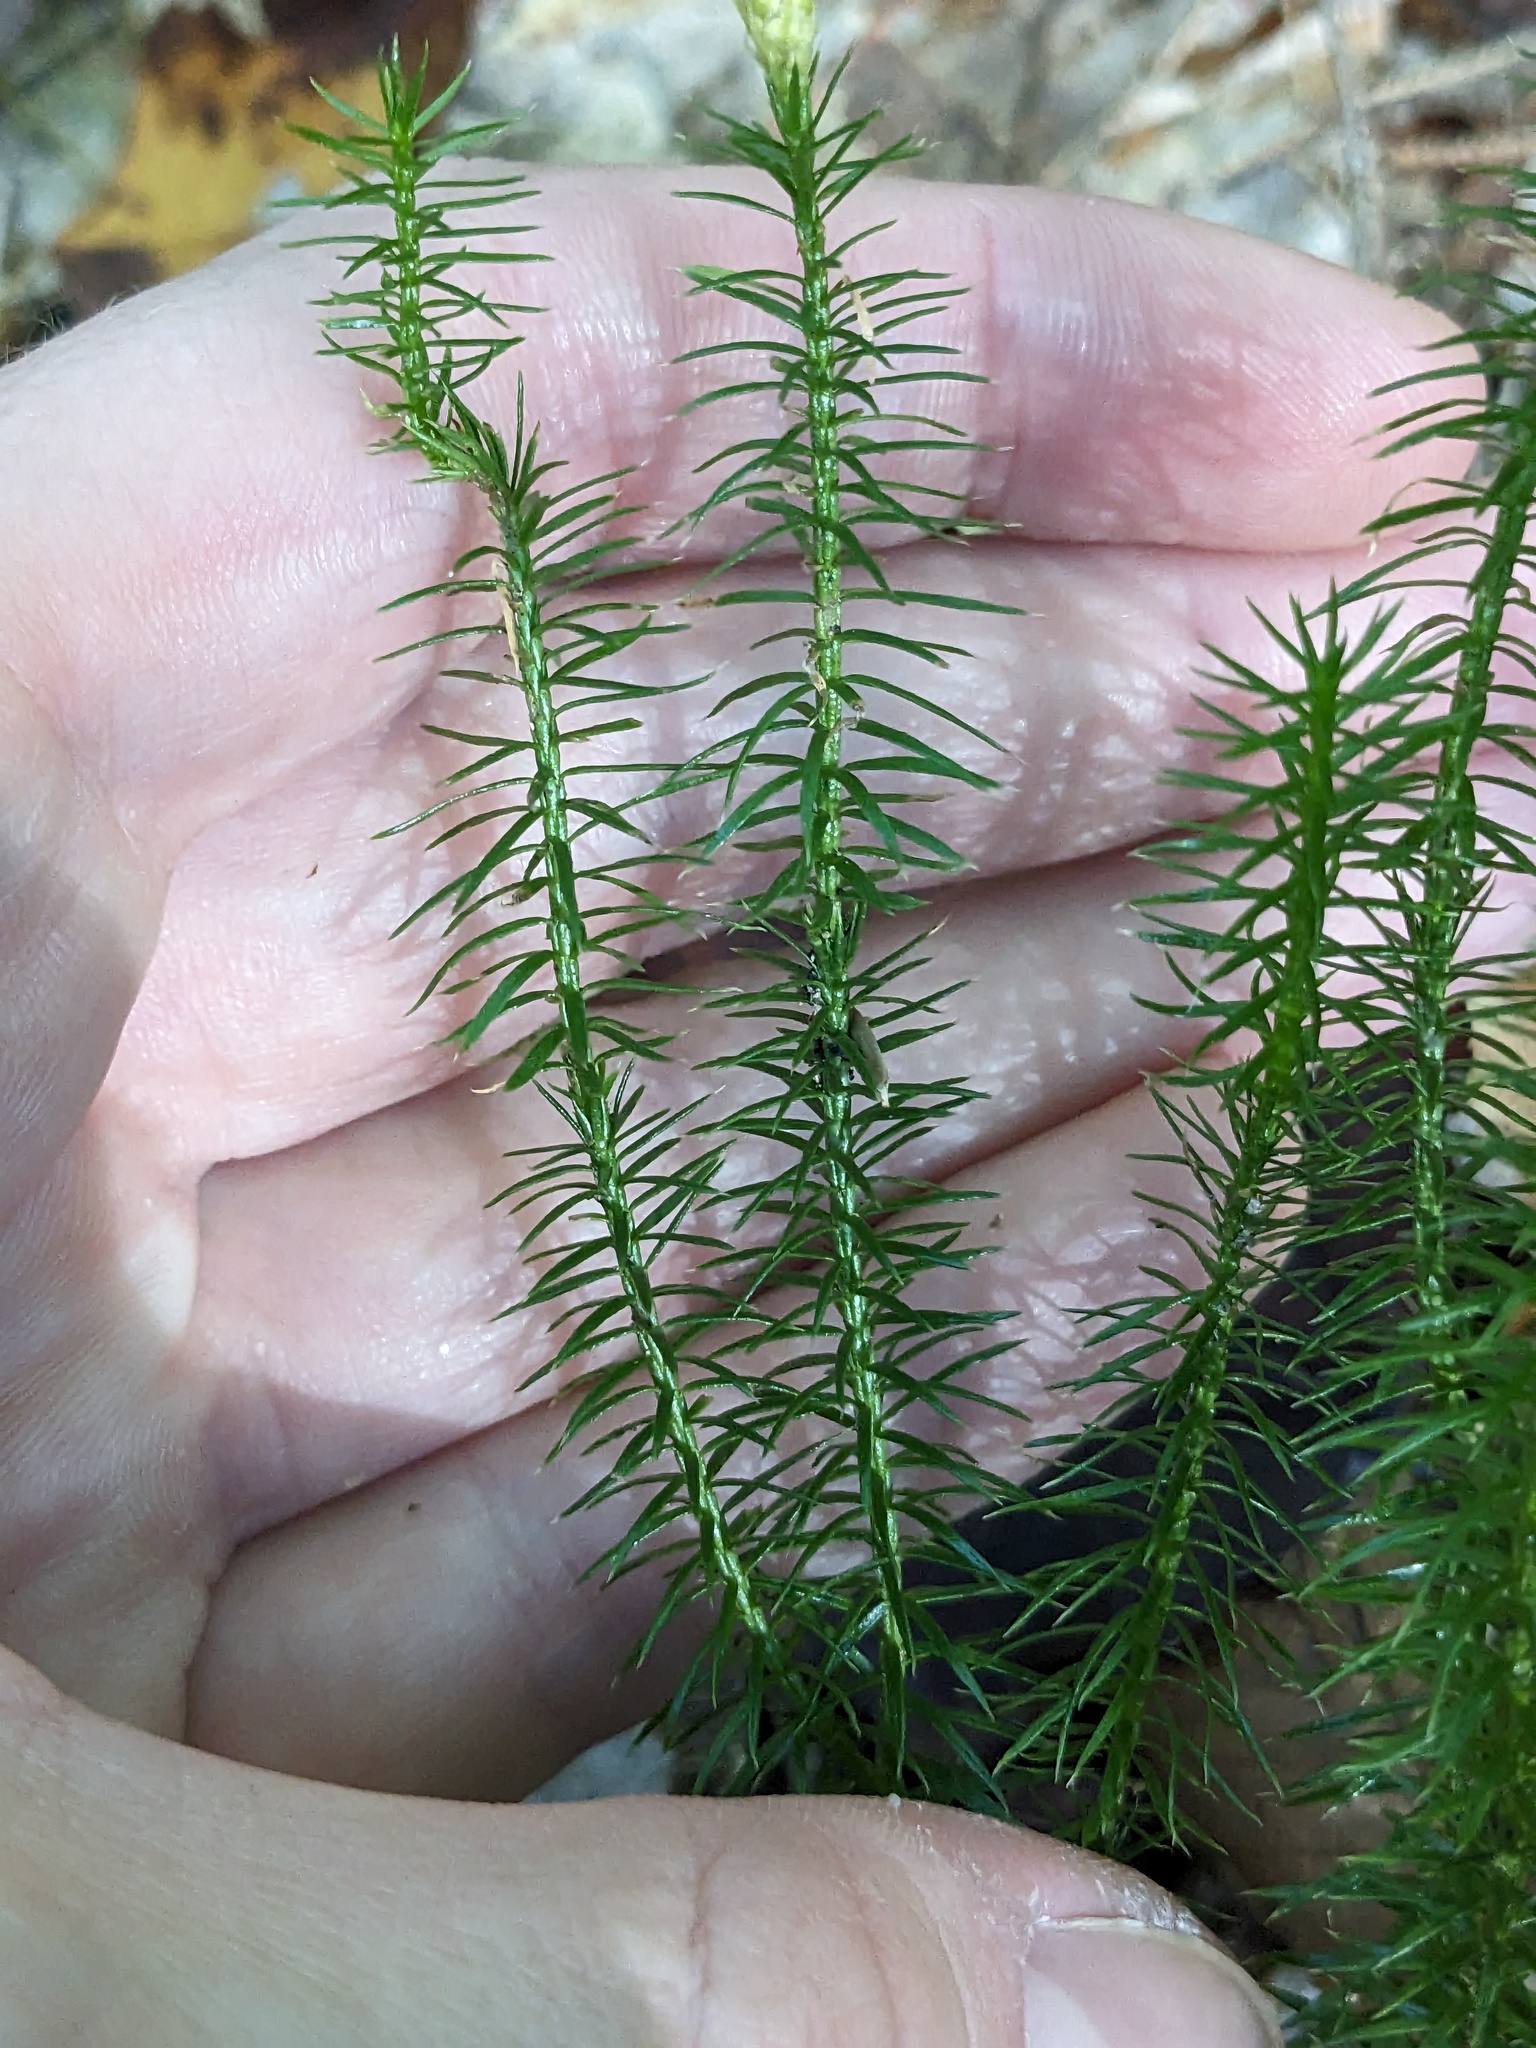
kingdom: Plantae
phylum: Tracheophyta
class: Lycopodiopsida
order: Lycopodiales
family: Lycopodiaceae
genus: Spinulum
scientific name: Spinulum annotinum
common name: Interrupted club-moss
